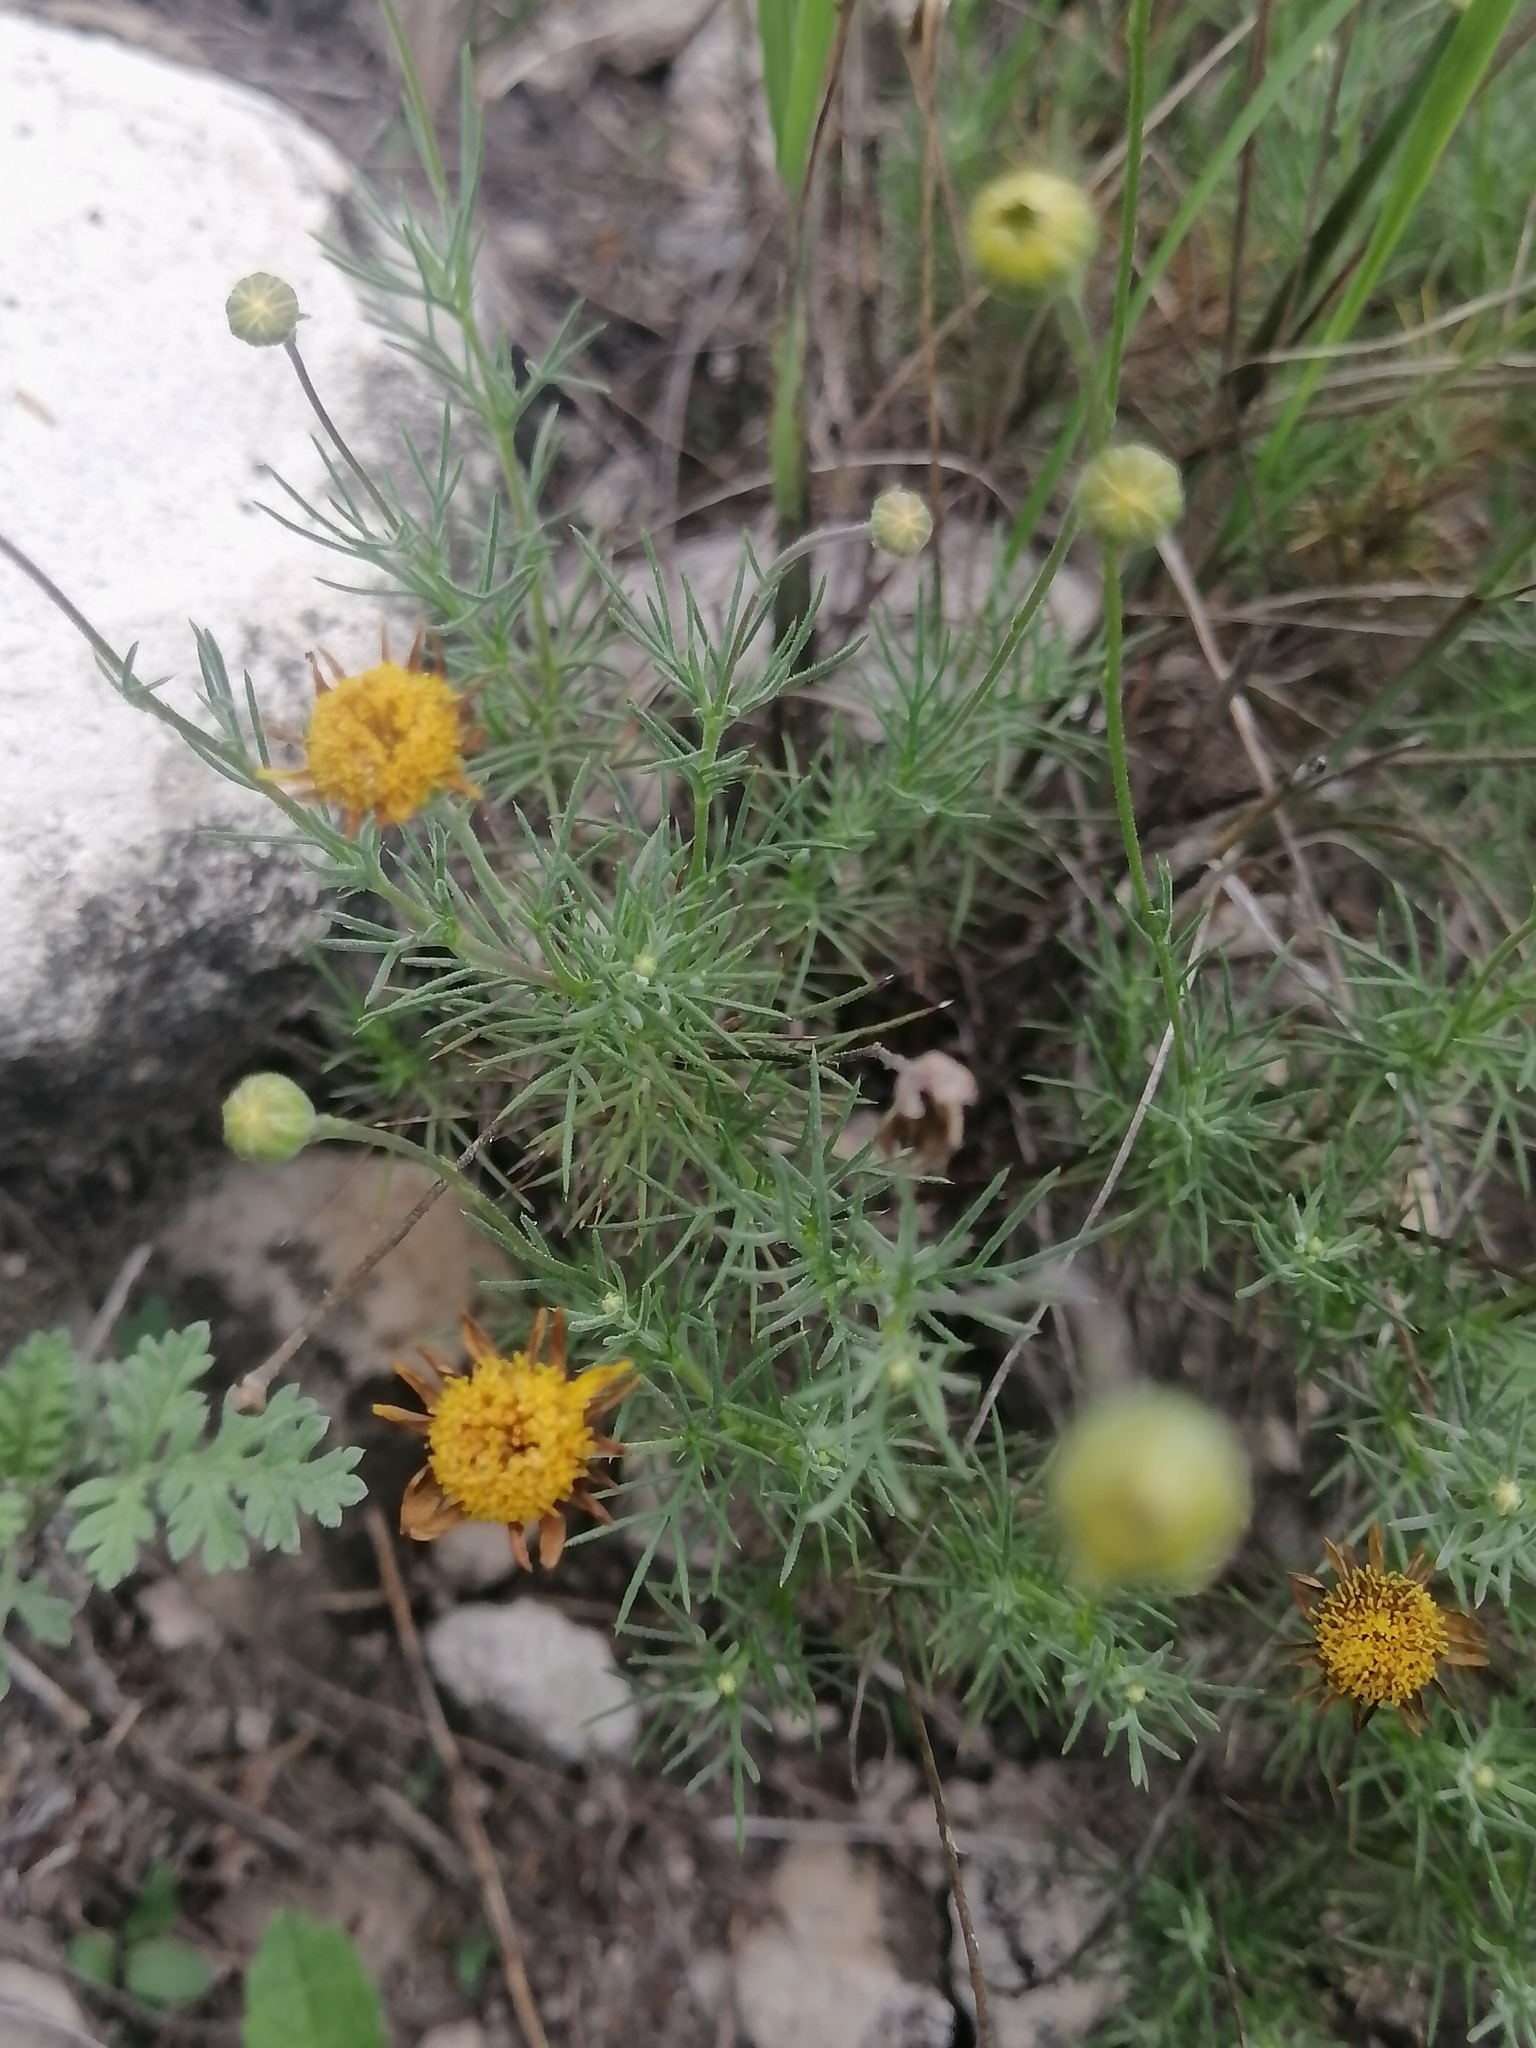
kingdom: Plantae
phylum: Tracheophyta
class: Magnoliopsida
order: Asterales
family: Asteraceae
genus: Thymophylla
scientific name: Thymophylla pentachaeta
